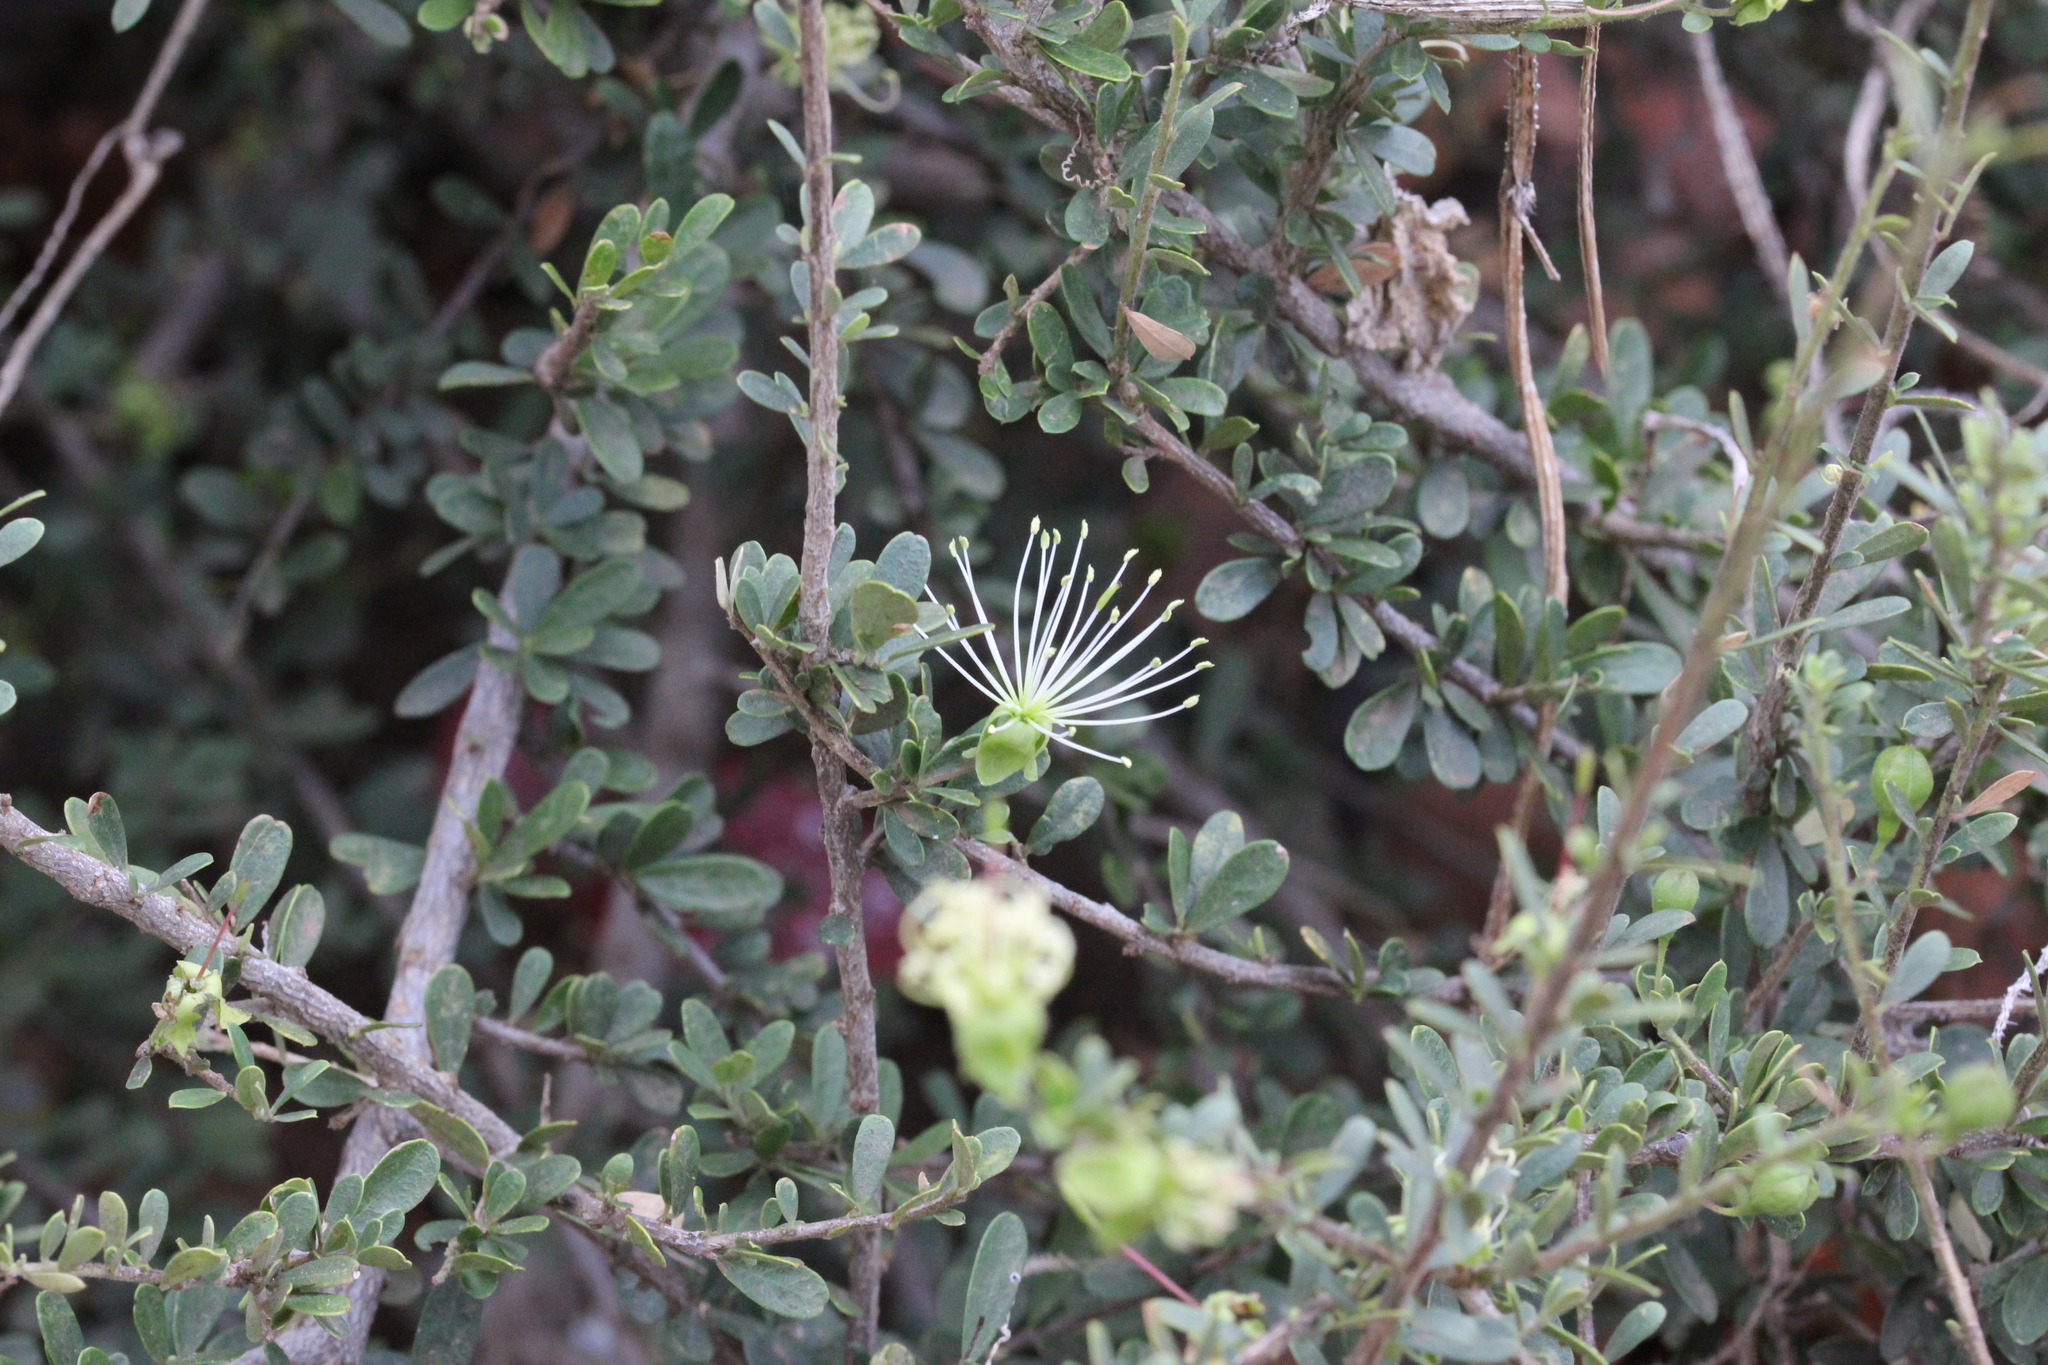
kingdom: Plantae
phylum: Tracheophyta
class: Magnoliopsida
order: Brassicales
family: Capparaceae
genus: Maerua
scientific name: Maerua parvifolia
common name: Dwarf bush-cherry
